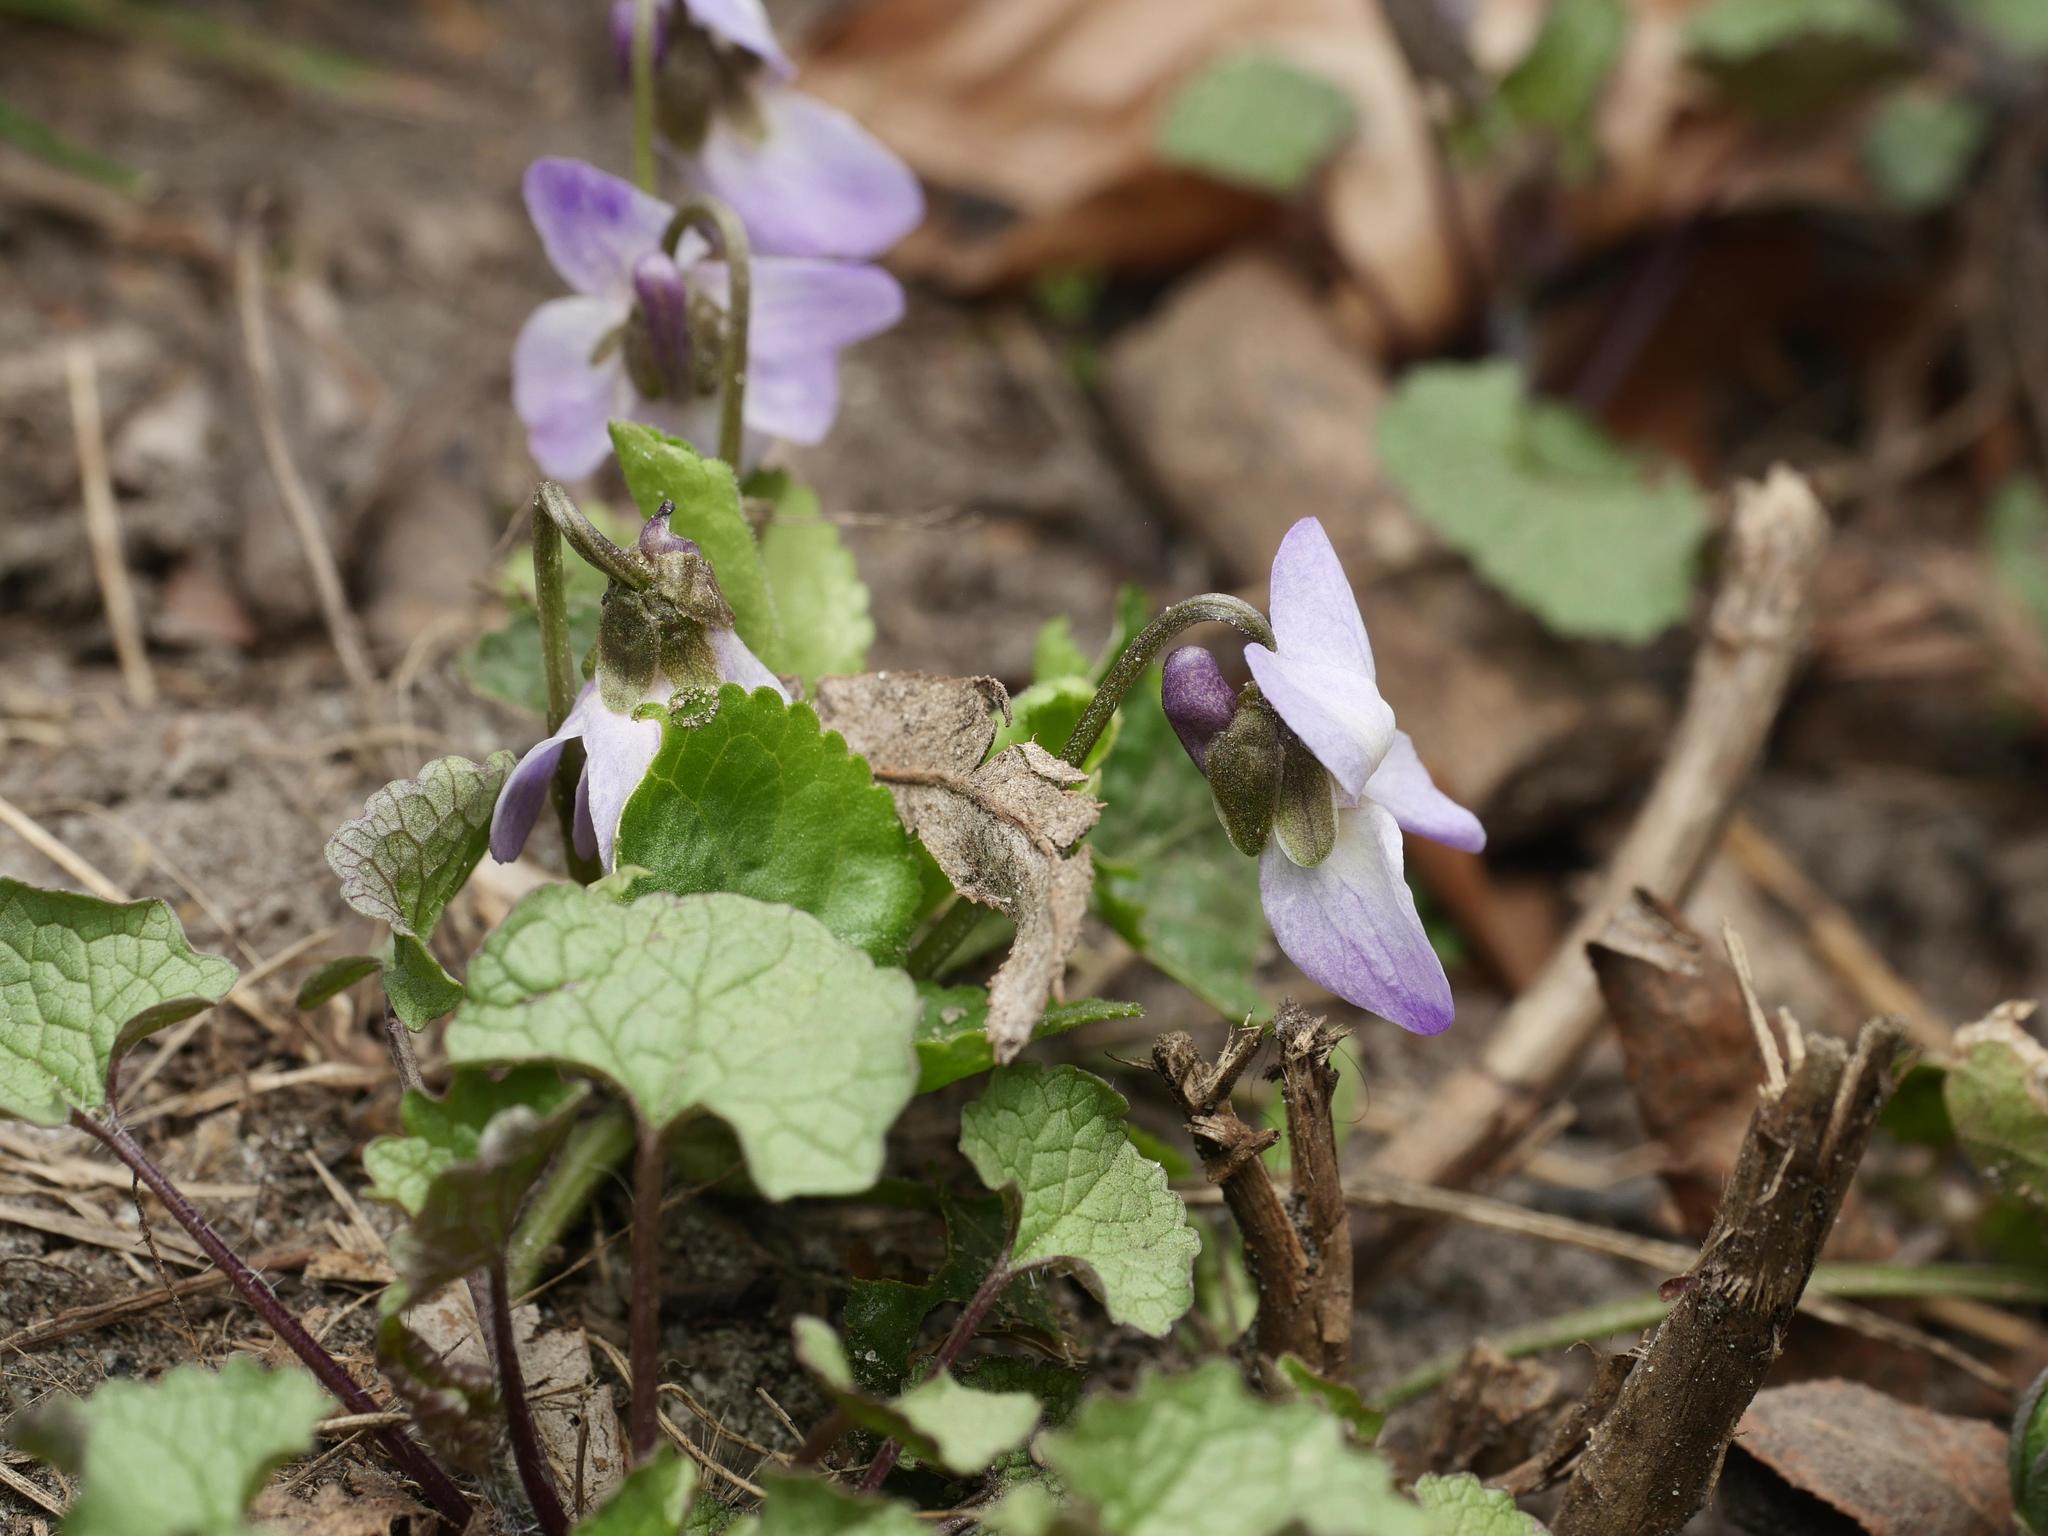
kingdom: Plantae
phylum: Tracheophyta
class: Magnoliopsida
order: Malpighiales
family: Violaceae
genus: Viola
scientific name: Viola odorata
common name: Sweet violet
